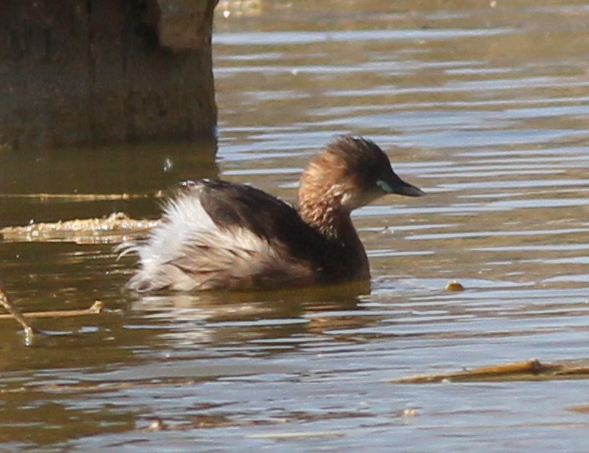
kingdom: Animalia
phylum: Chordata
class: Aves
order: Podicipediformes
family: Podicipedidae
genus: Tachybaptus
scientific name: Tachybaptus ruficollis
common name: Little grebe
